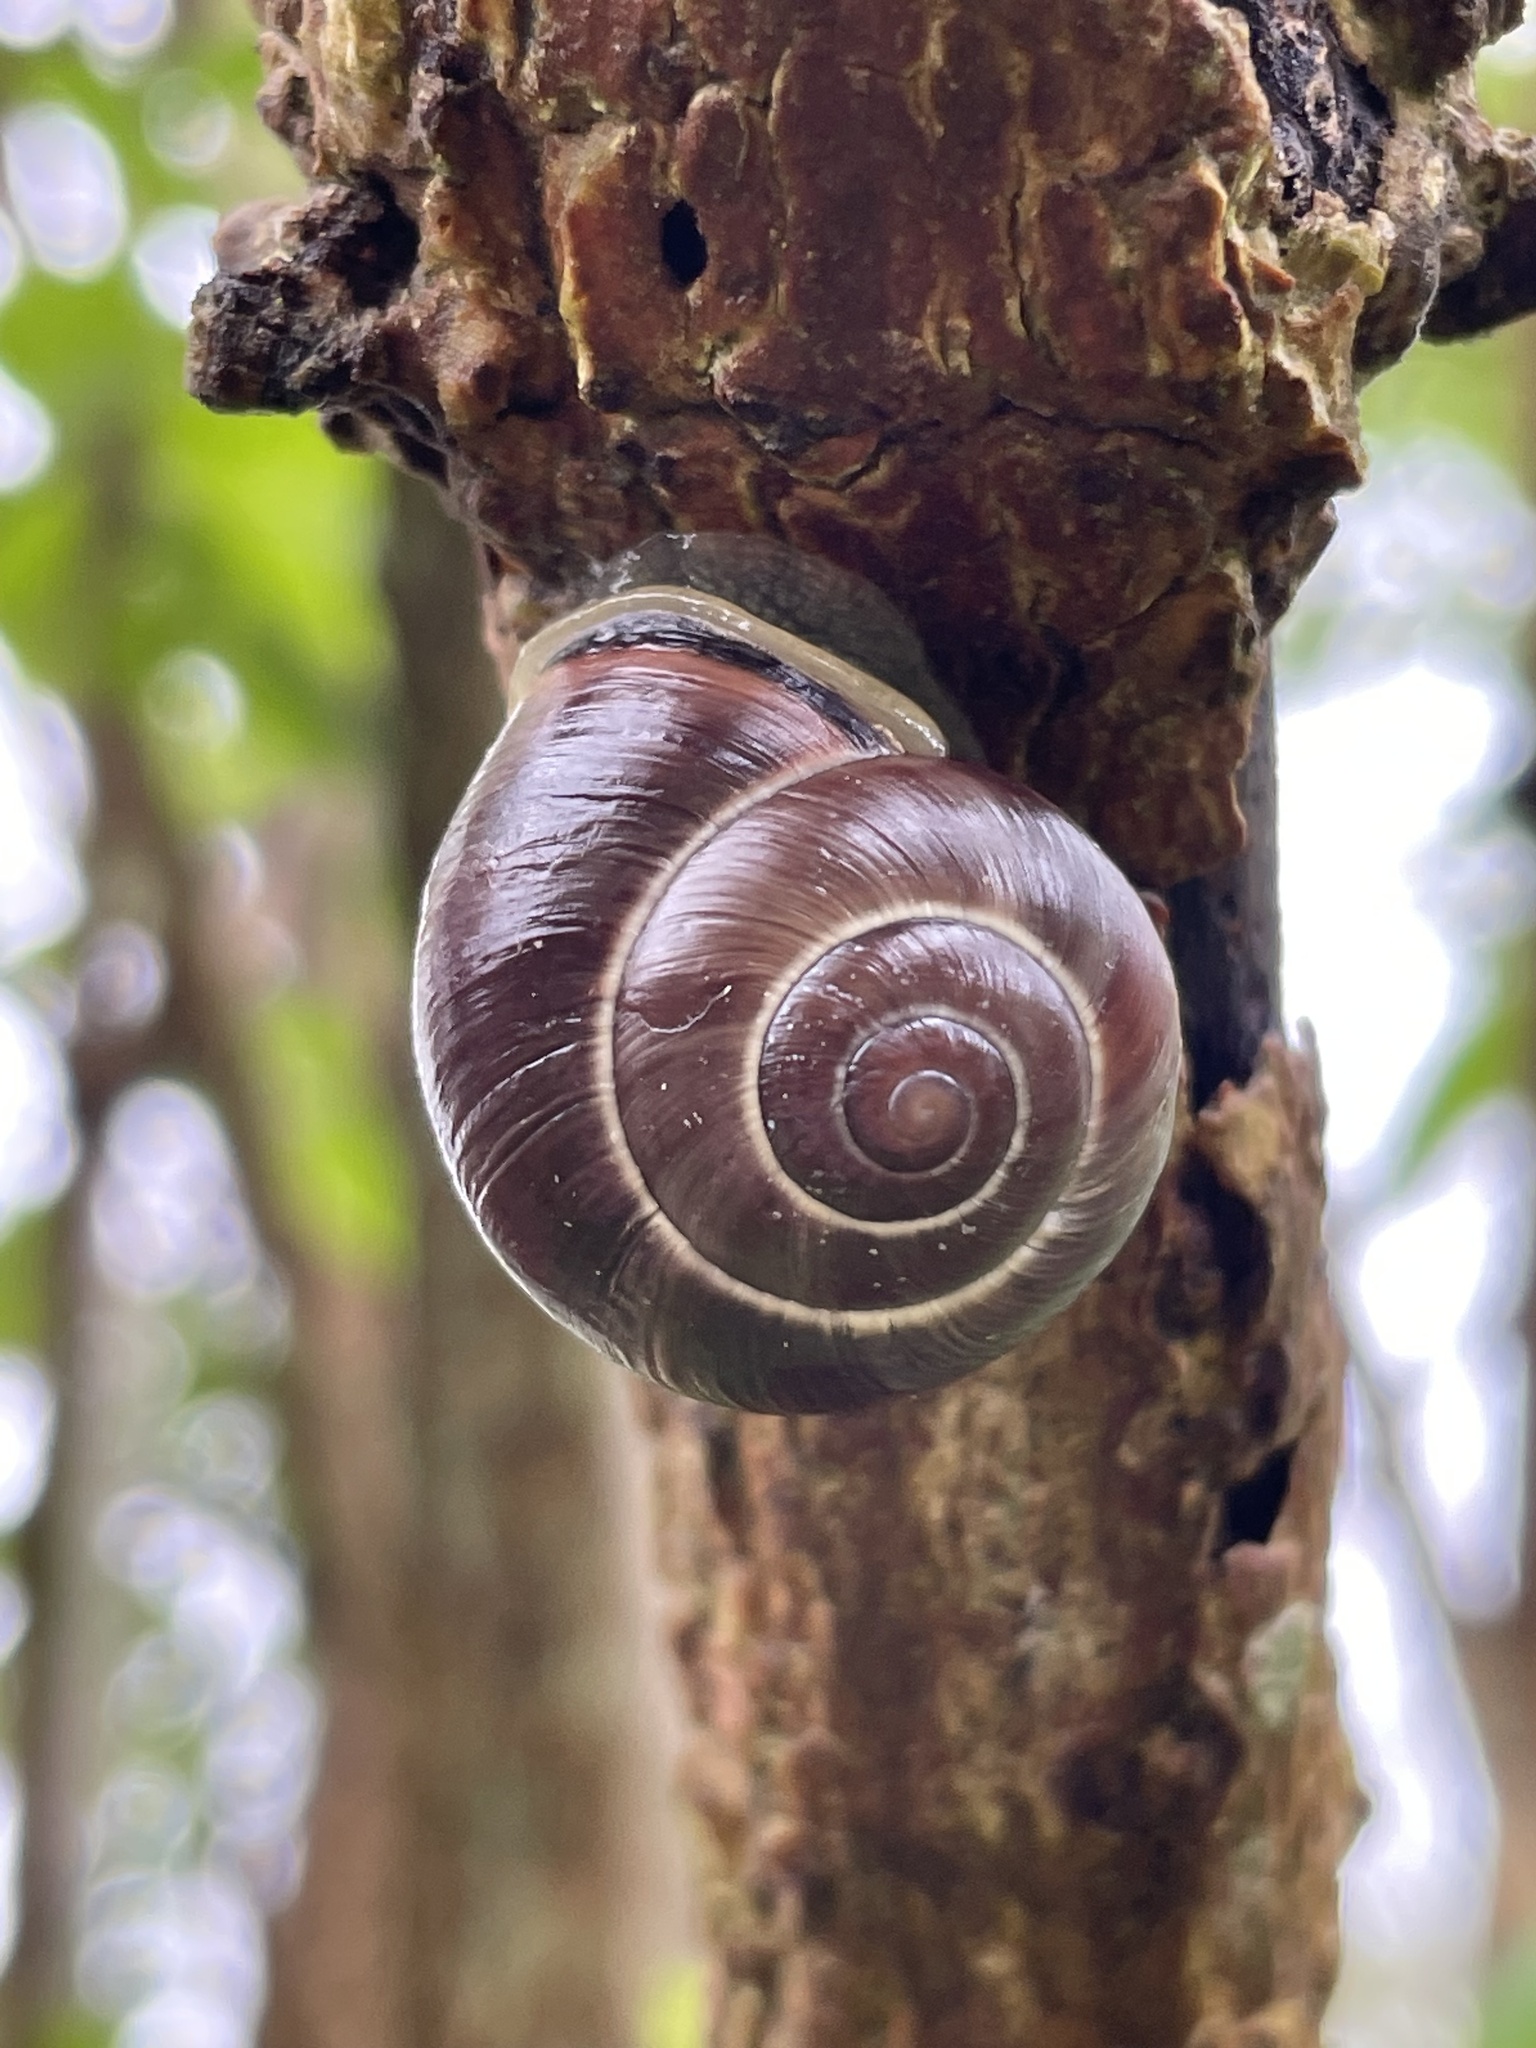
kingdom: Animalia
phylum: Mollusca
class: Gastropoda
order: Stylommatophora
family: Helicidae
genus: Cepaea
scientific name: Cepaea nemoralis
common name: Grovesnail
